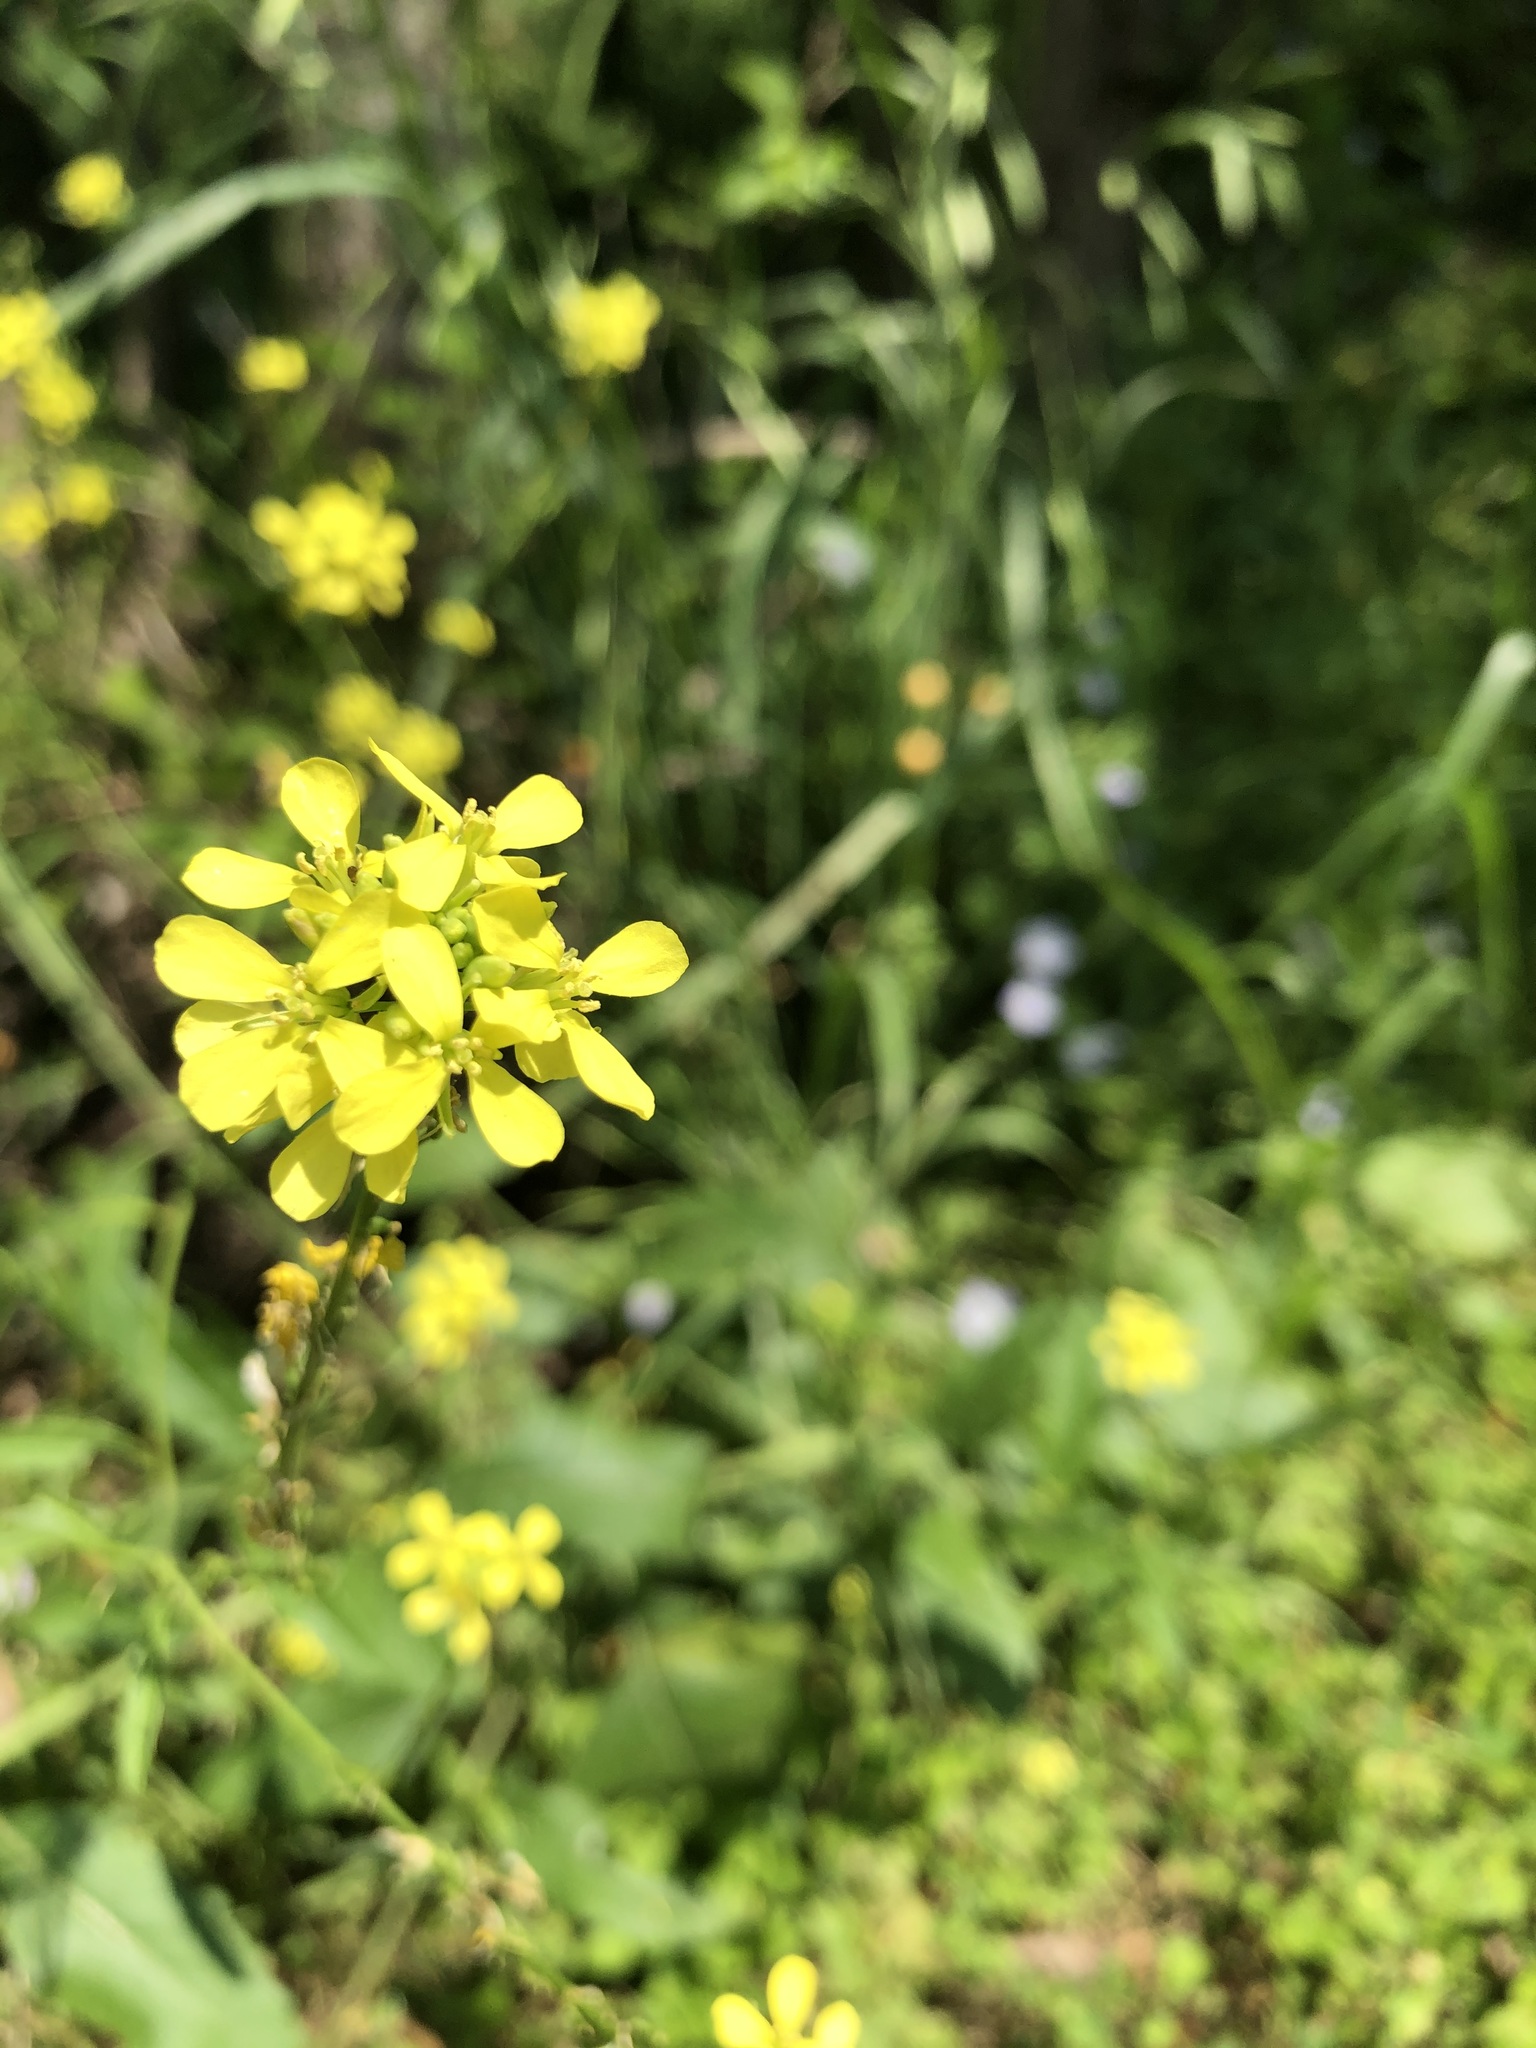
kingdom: Plantae
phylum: Tracheophyta
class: Magnoliopsida
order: Brassicales
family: Brassicaceae
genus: Rapistrum
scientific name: Rapistrum rugosum
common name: Annual bastardcabbage
